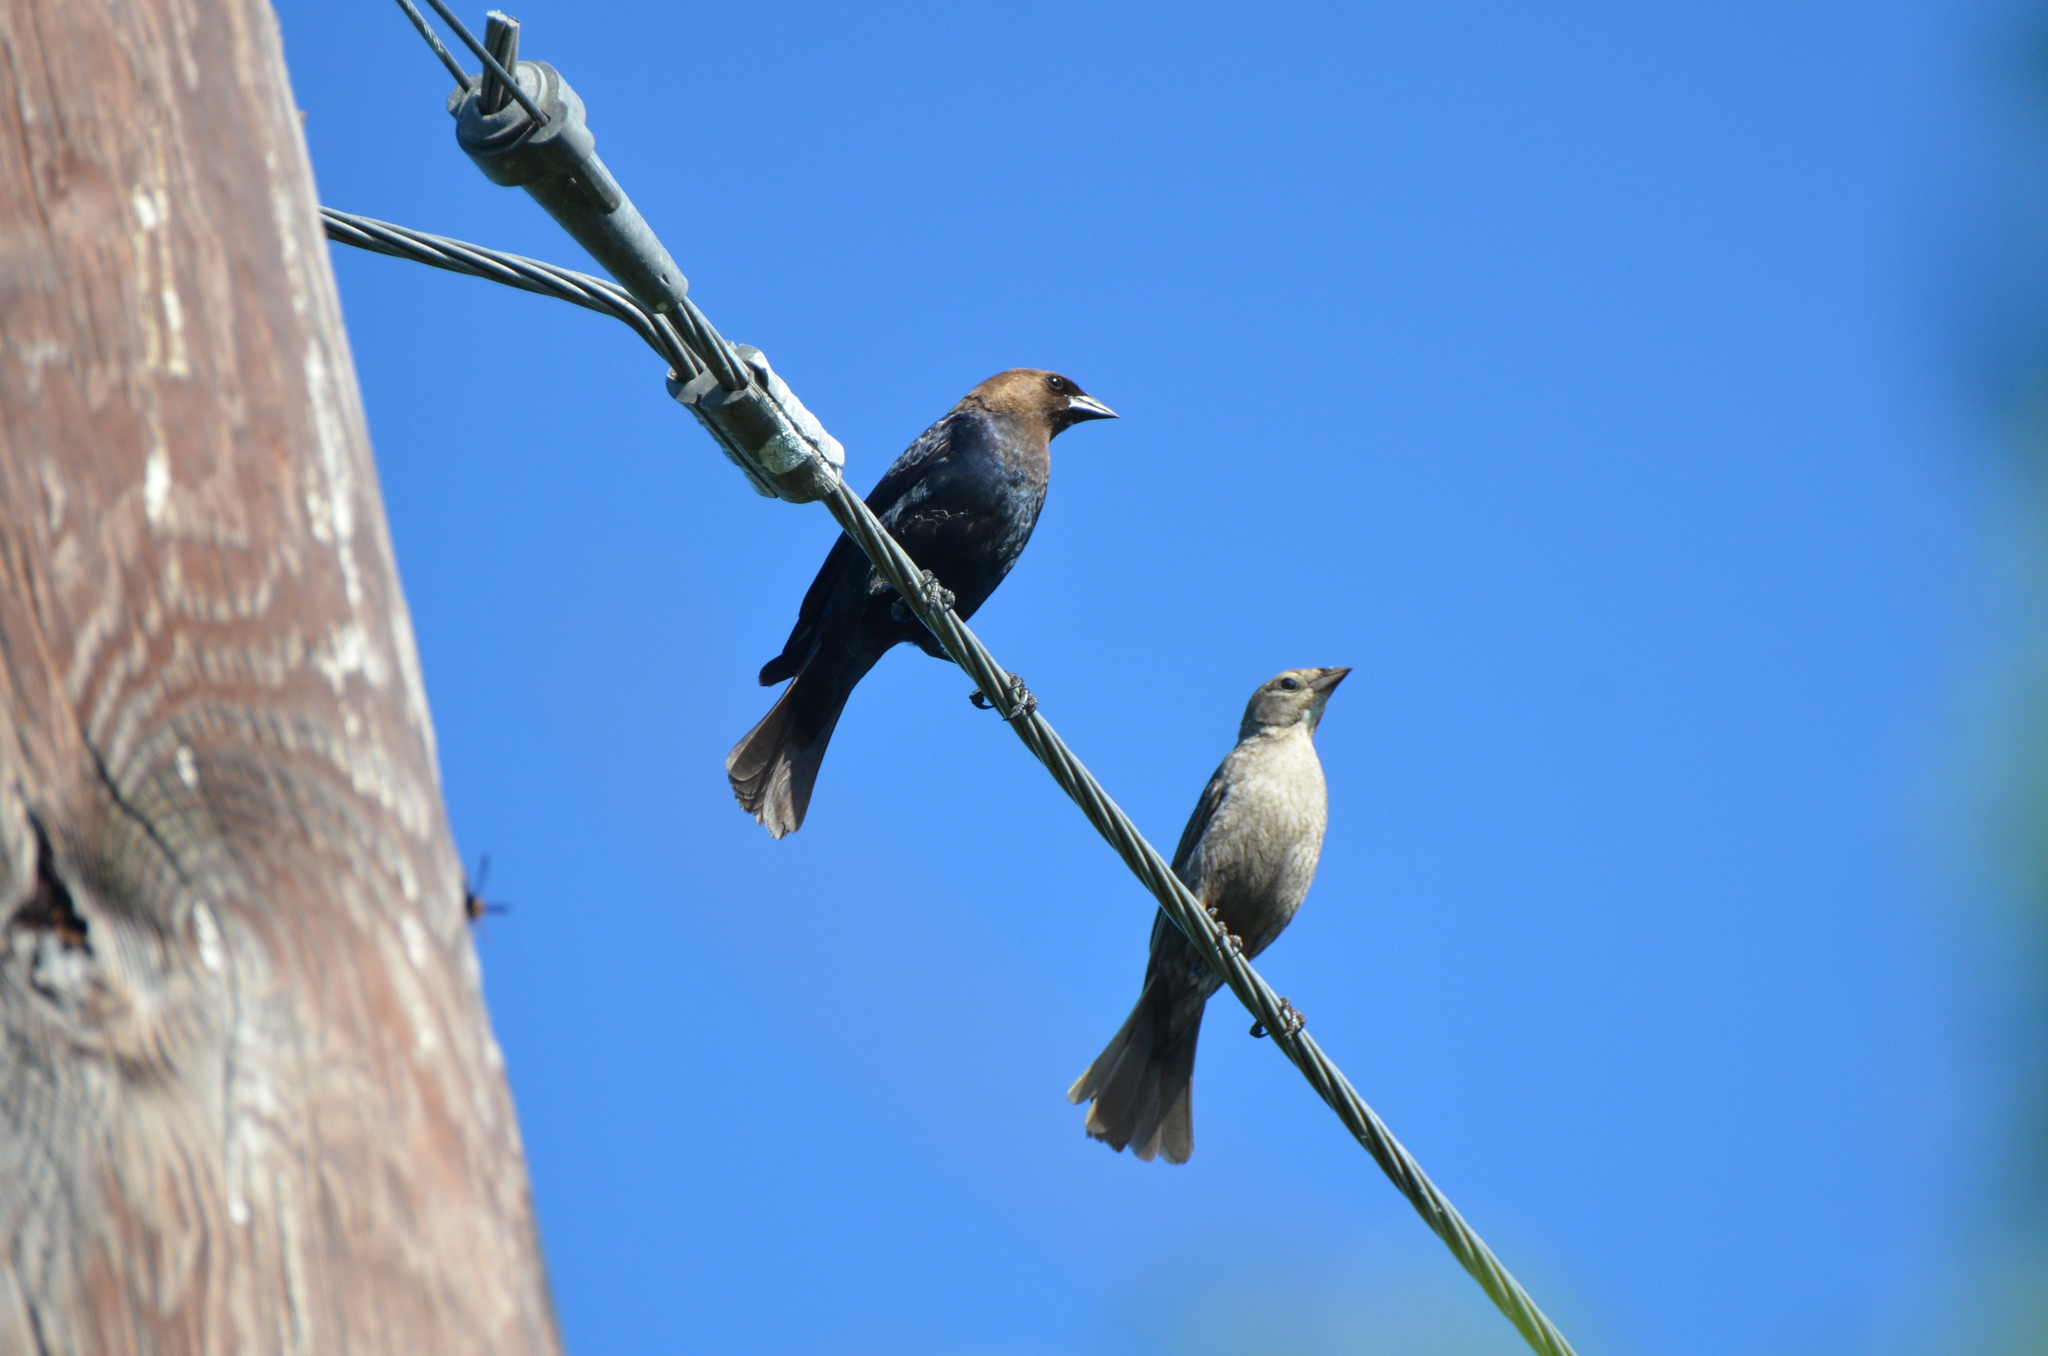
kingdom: Animalia
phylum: Chordata
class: Aves
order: Passeriformes
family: Icteridae
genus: Molothrus
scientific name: Molothrus ater
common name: Brown-headed cowbird
